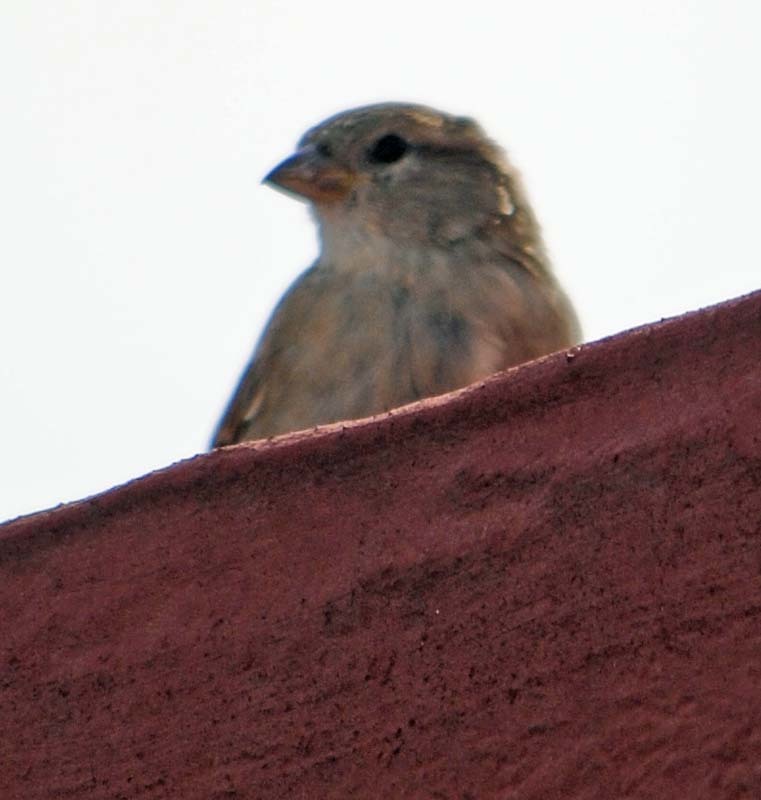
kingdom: Animalia
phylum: Chordata
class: Aves
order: Passeriformes
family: Passeridae
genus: Passer
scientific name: Passer domesticus
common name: House sparrow
